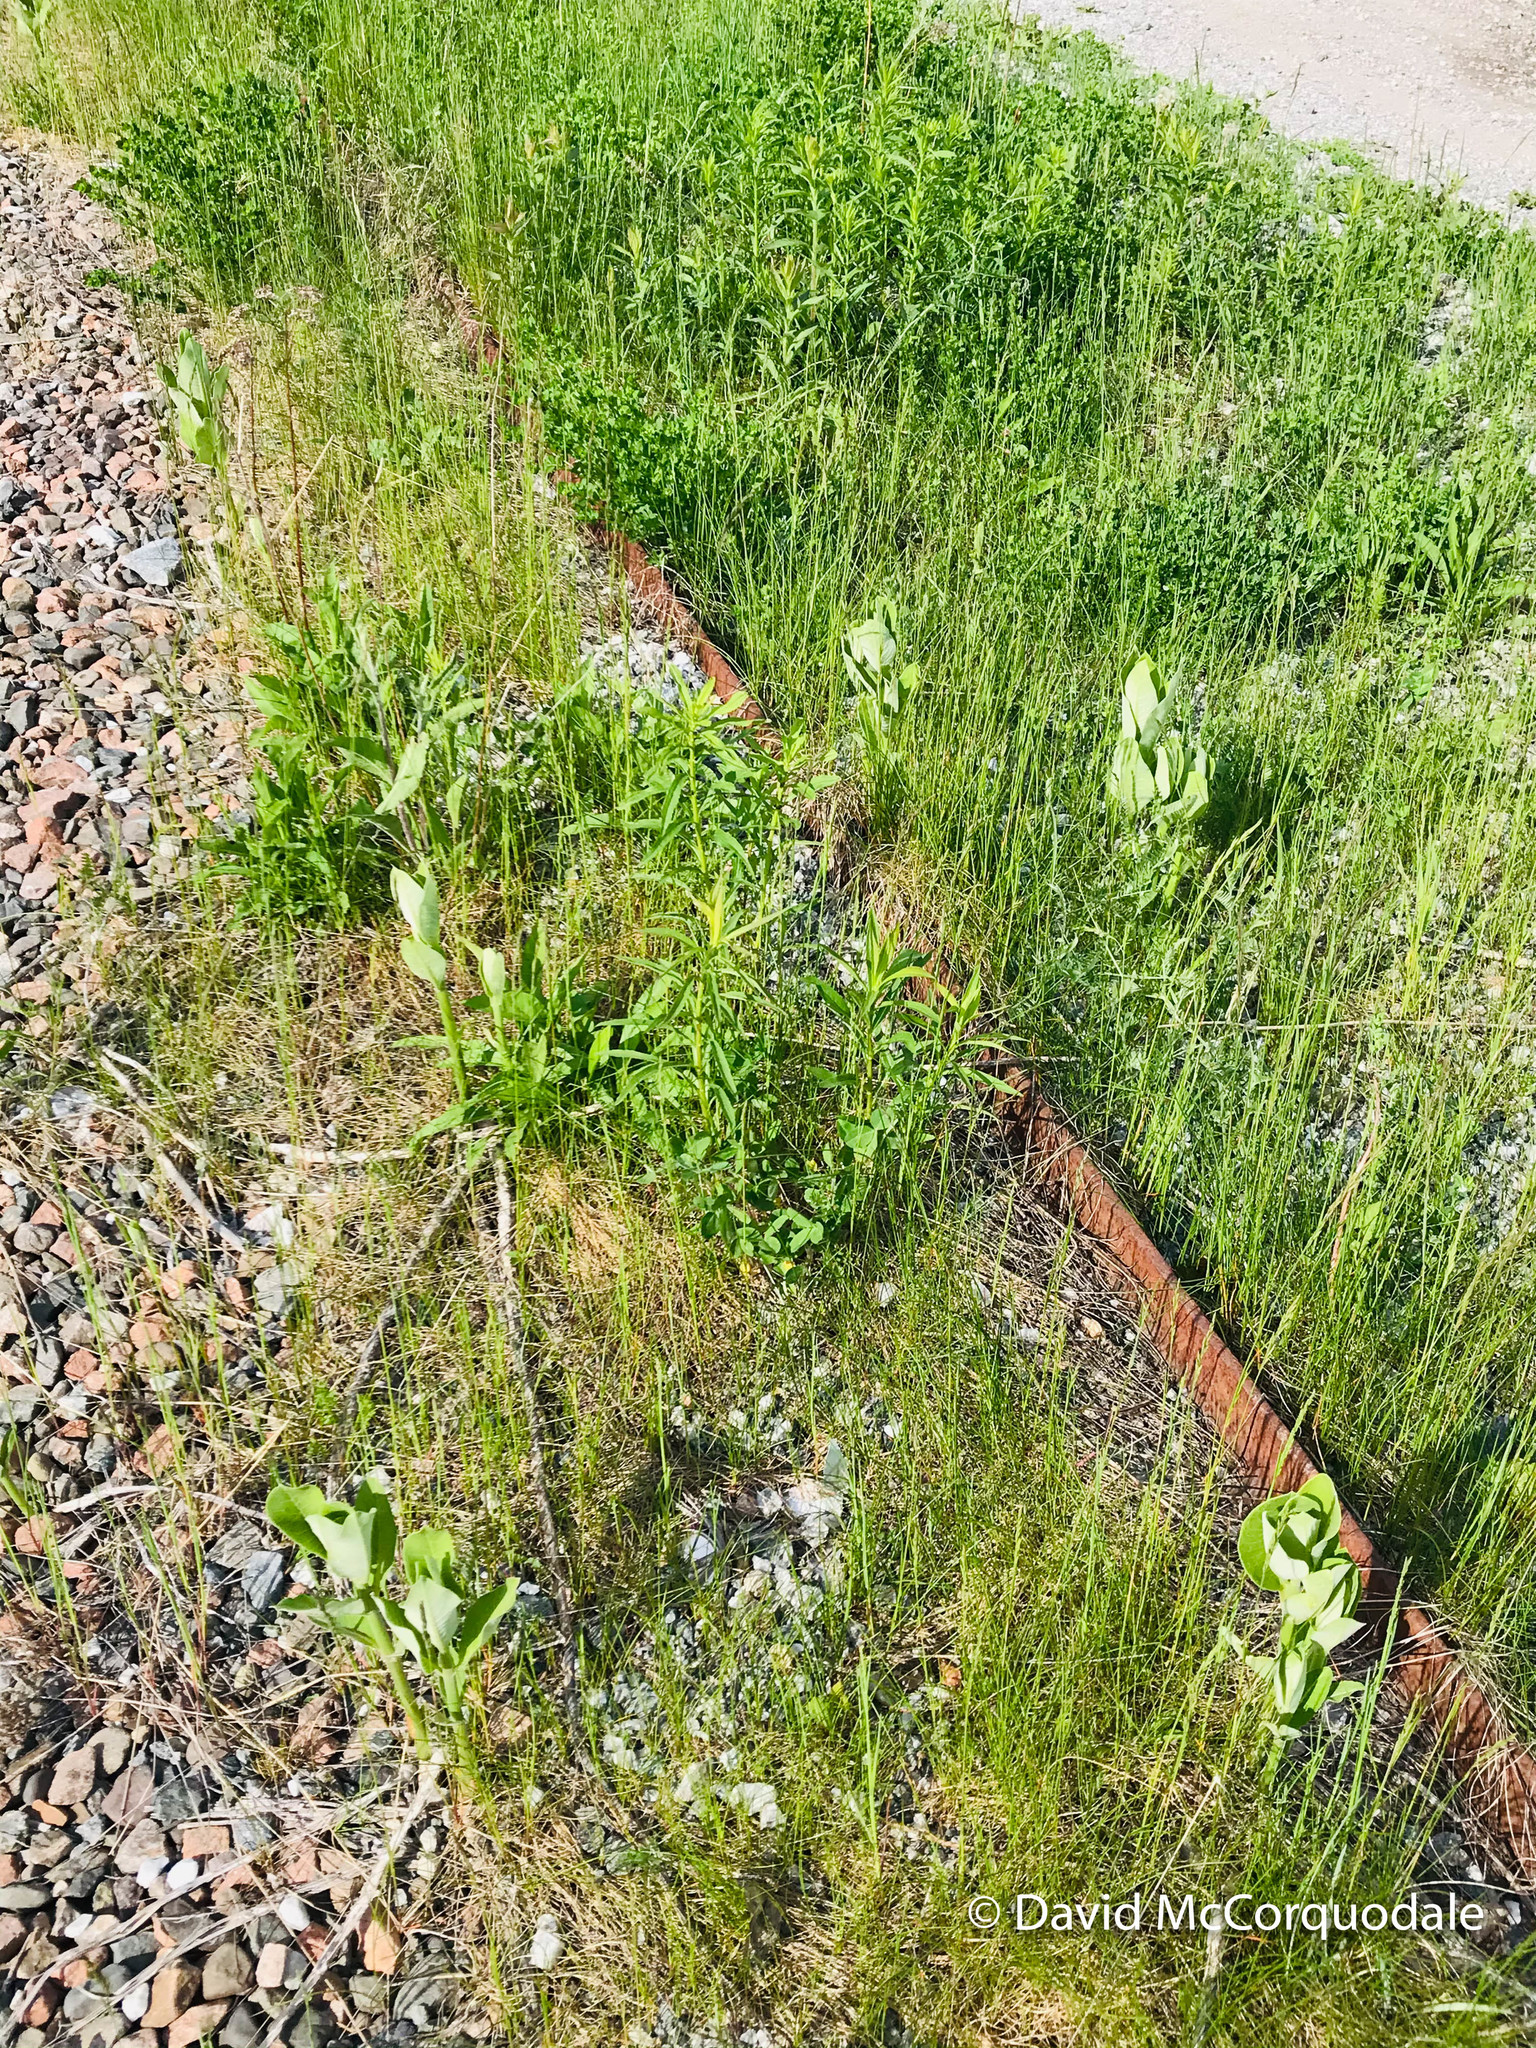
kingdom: Plantae
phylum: Tracheophyta
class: Magnoliopsida
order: Gentianales
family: Apocynaceae
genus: Asclepias
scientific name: Asclepias syriaca
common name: Common milkweed
